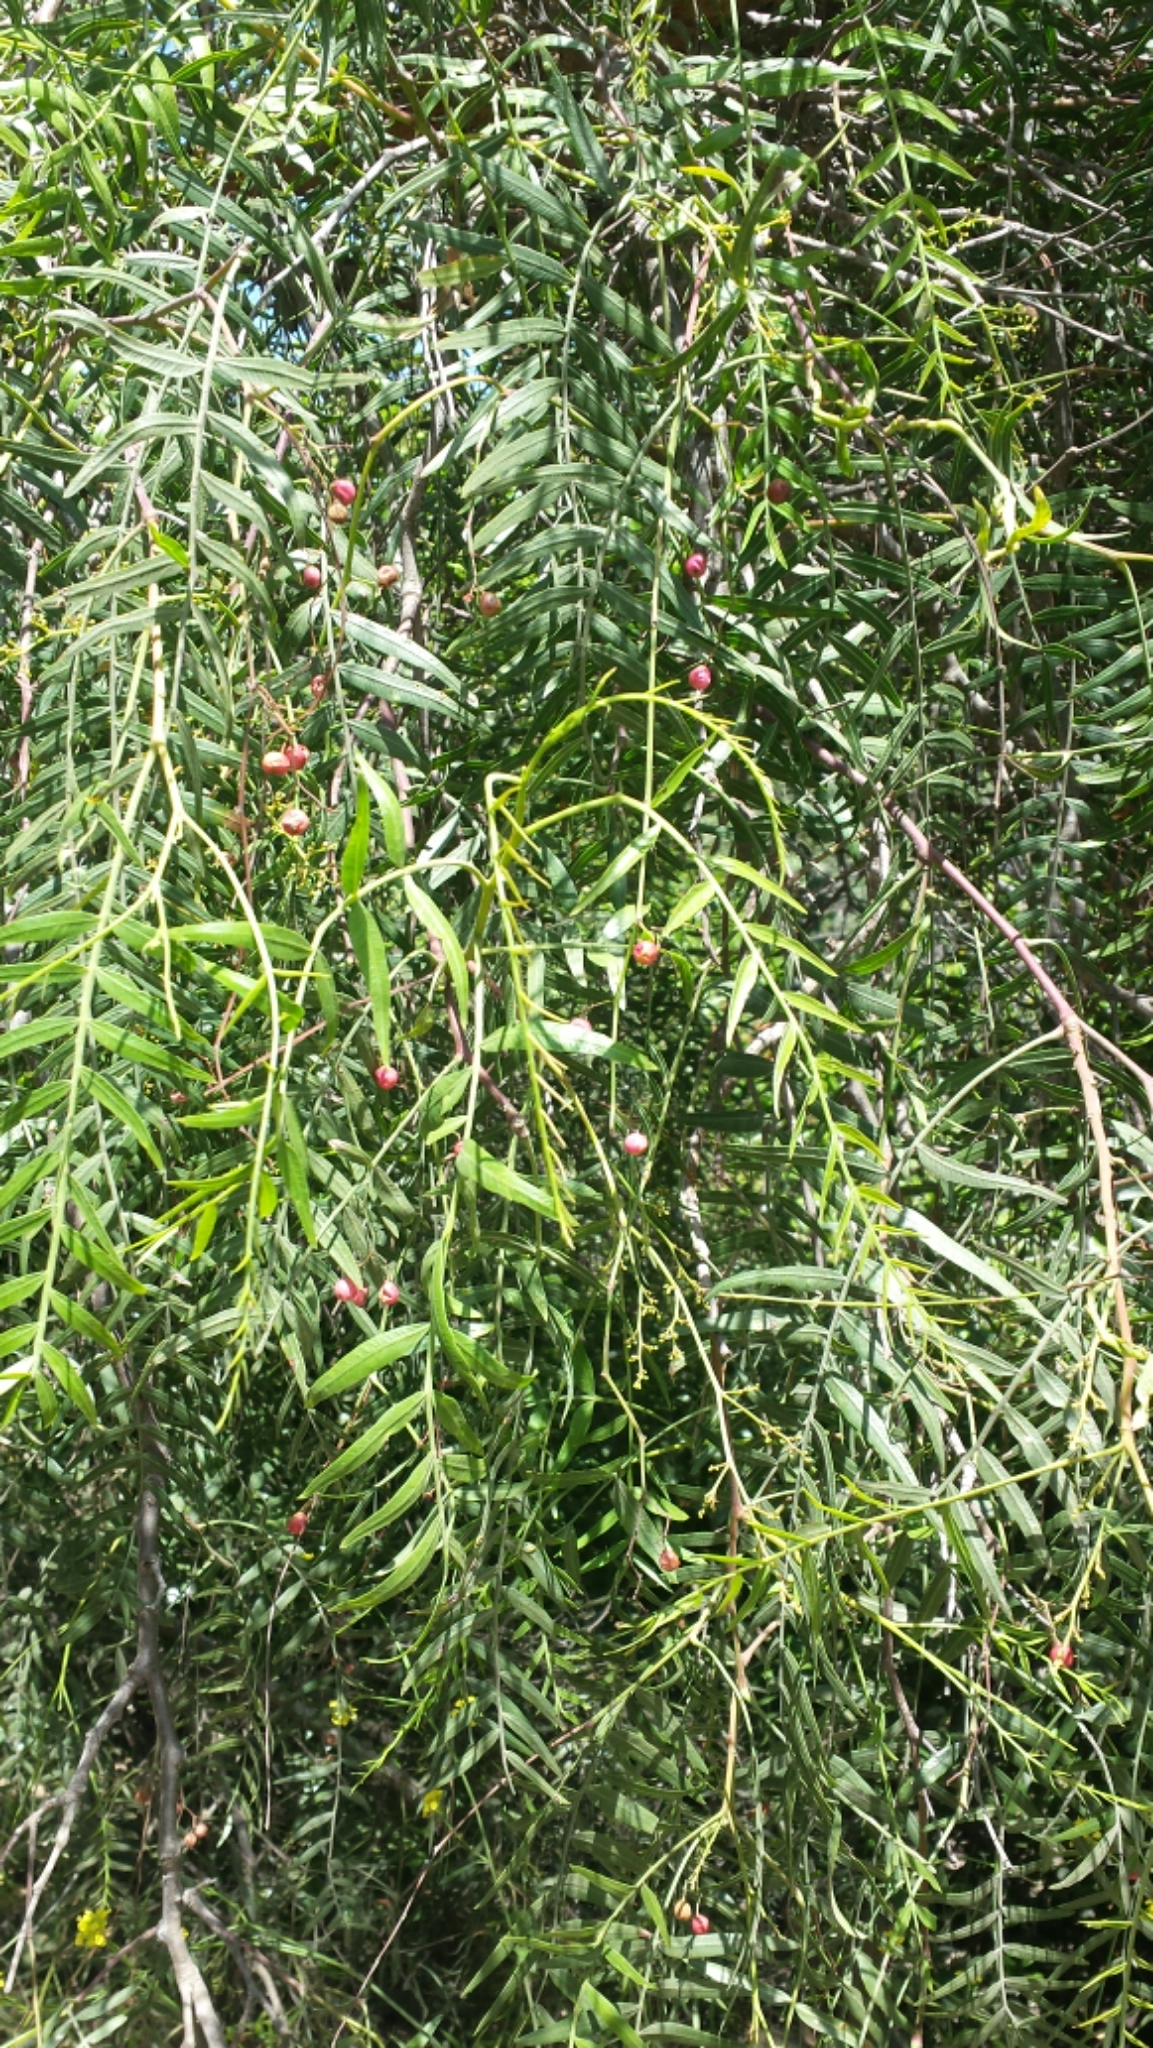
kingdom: Plantae
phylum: Tracheophyta
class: Magnoliopsida
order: Sapindales
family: Anacardiaceae
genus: Schinus
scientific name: Schinus molle
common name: Peruvian peppertree
